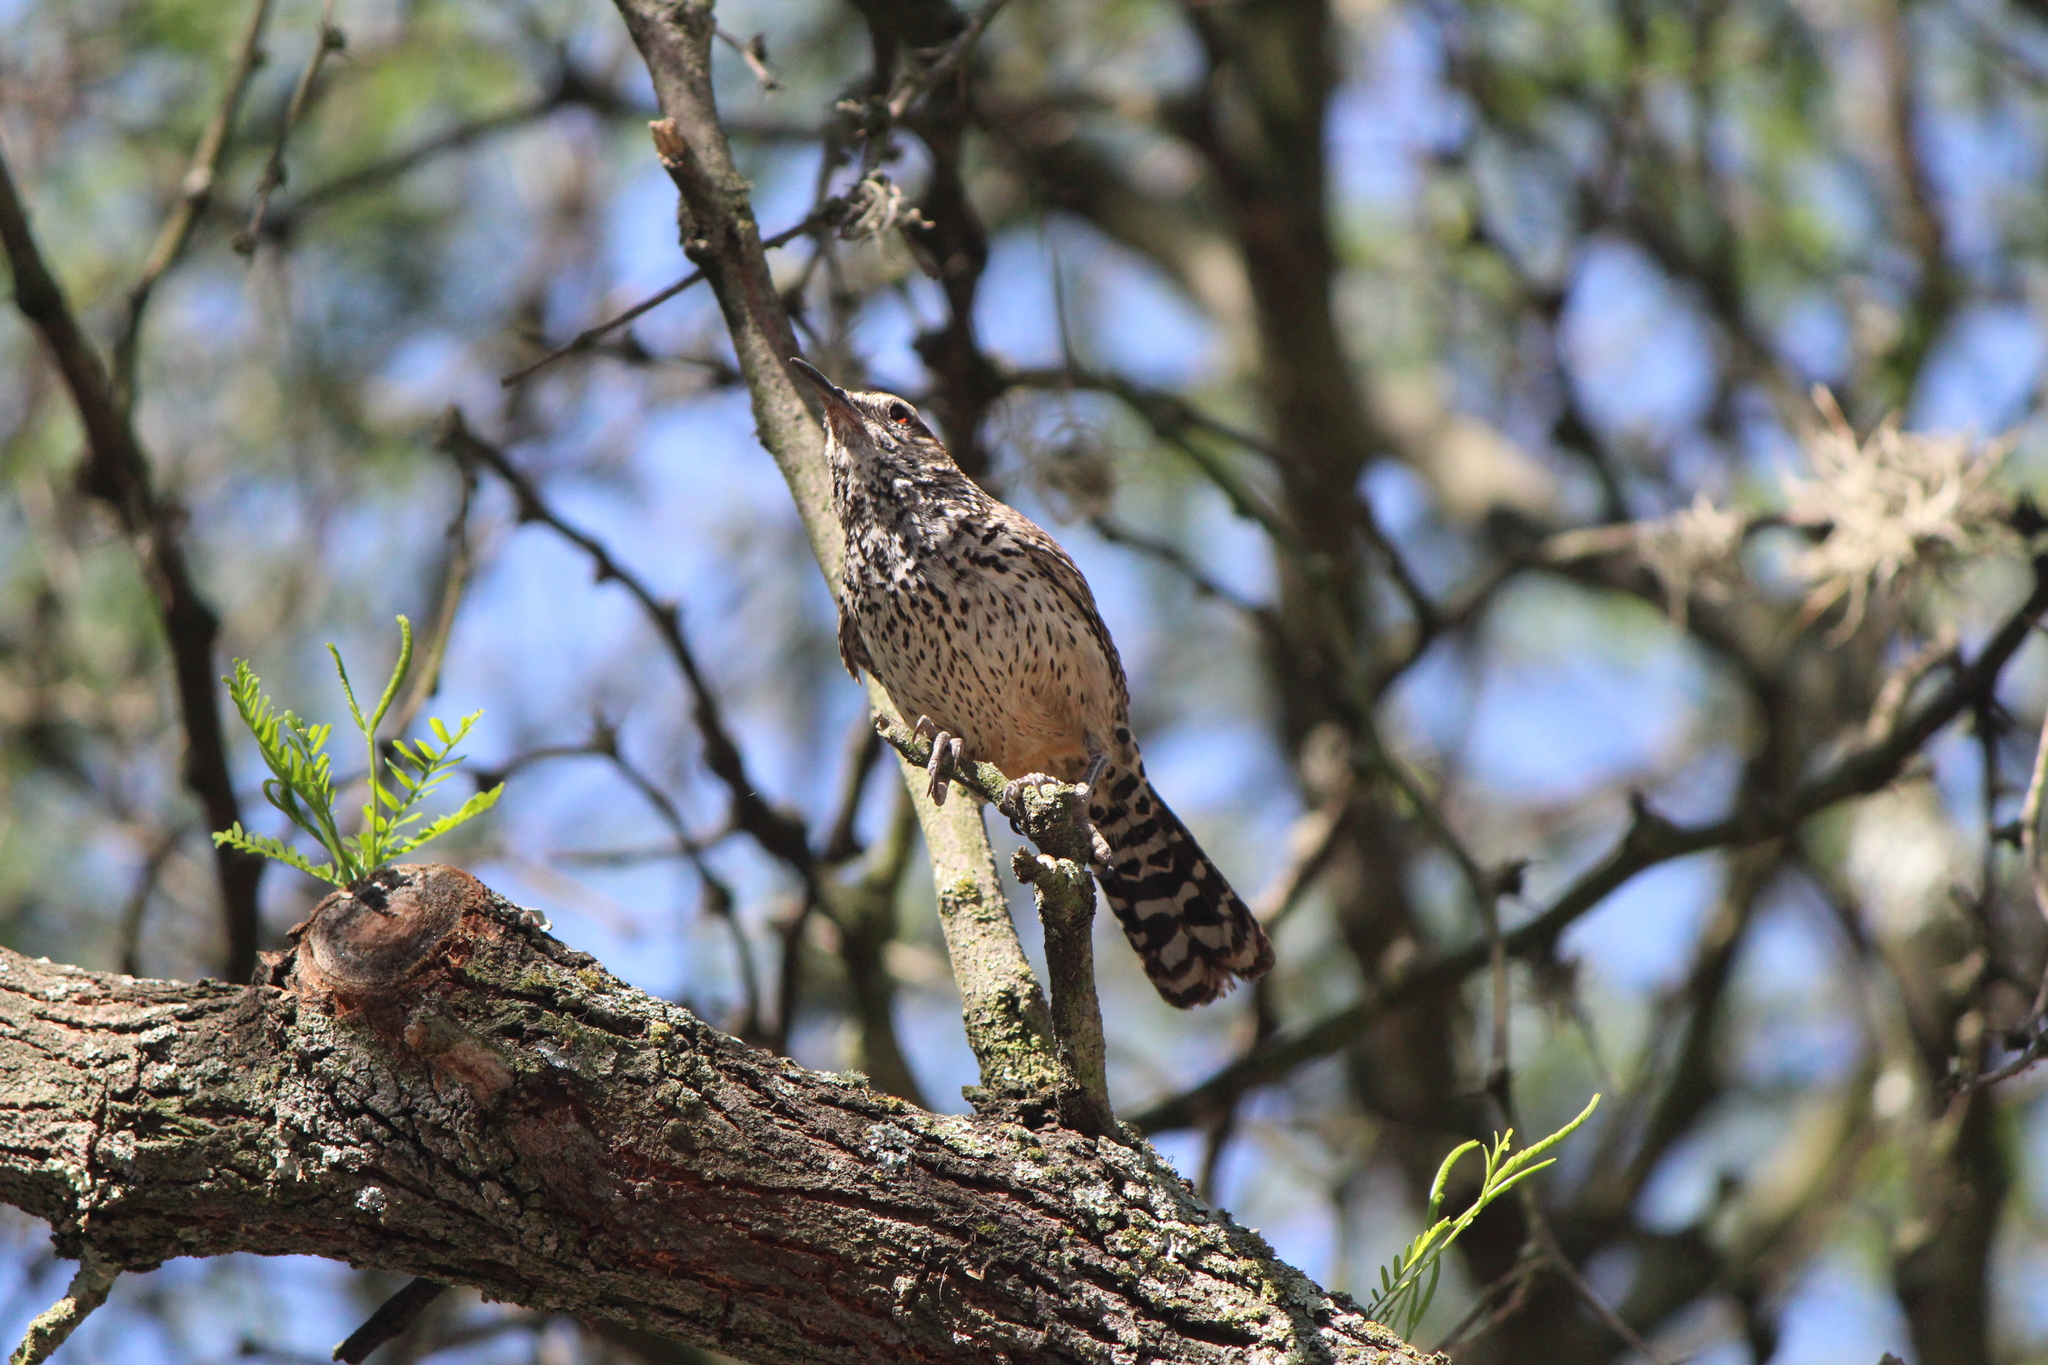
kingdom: Animalia
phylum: Chordata
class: Aves
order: Passeriformes
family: Troglodytidae
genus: Campylorhynchus
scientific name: Campylorhynchus brunneicapillus
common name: Cactus wren
